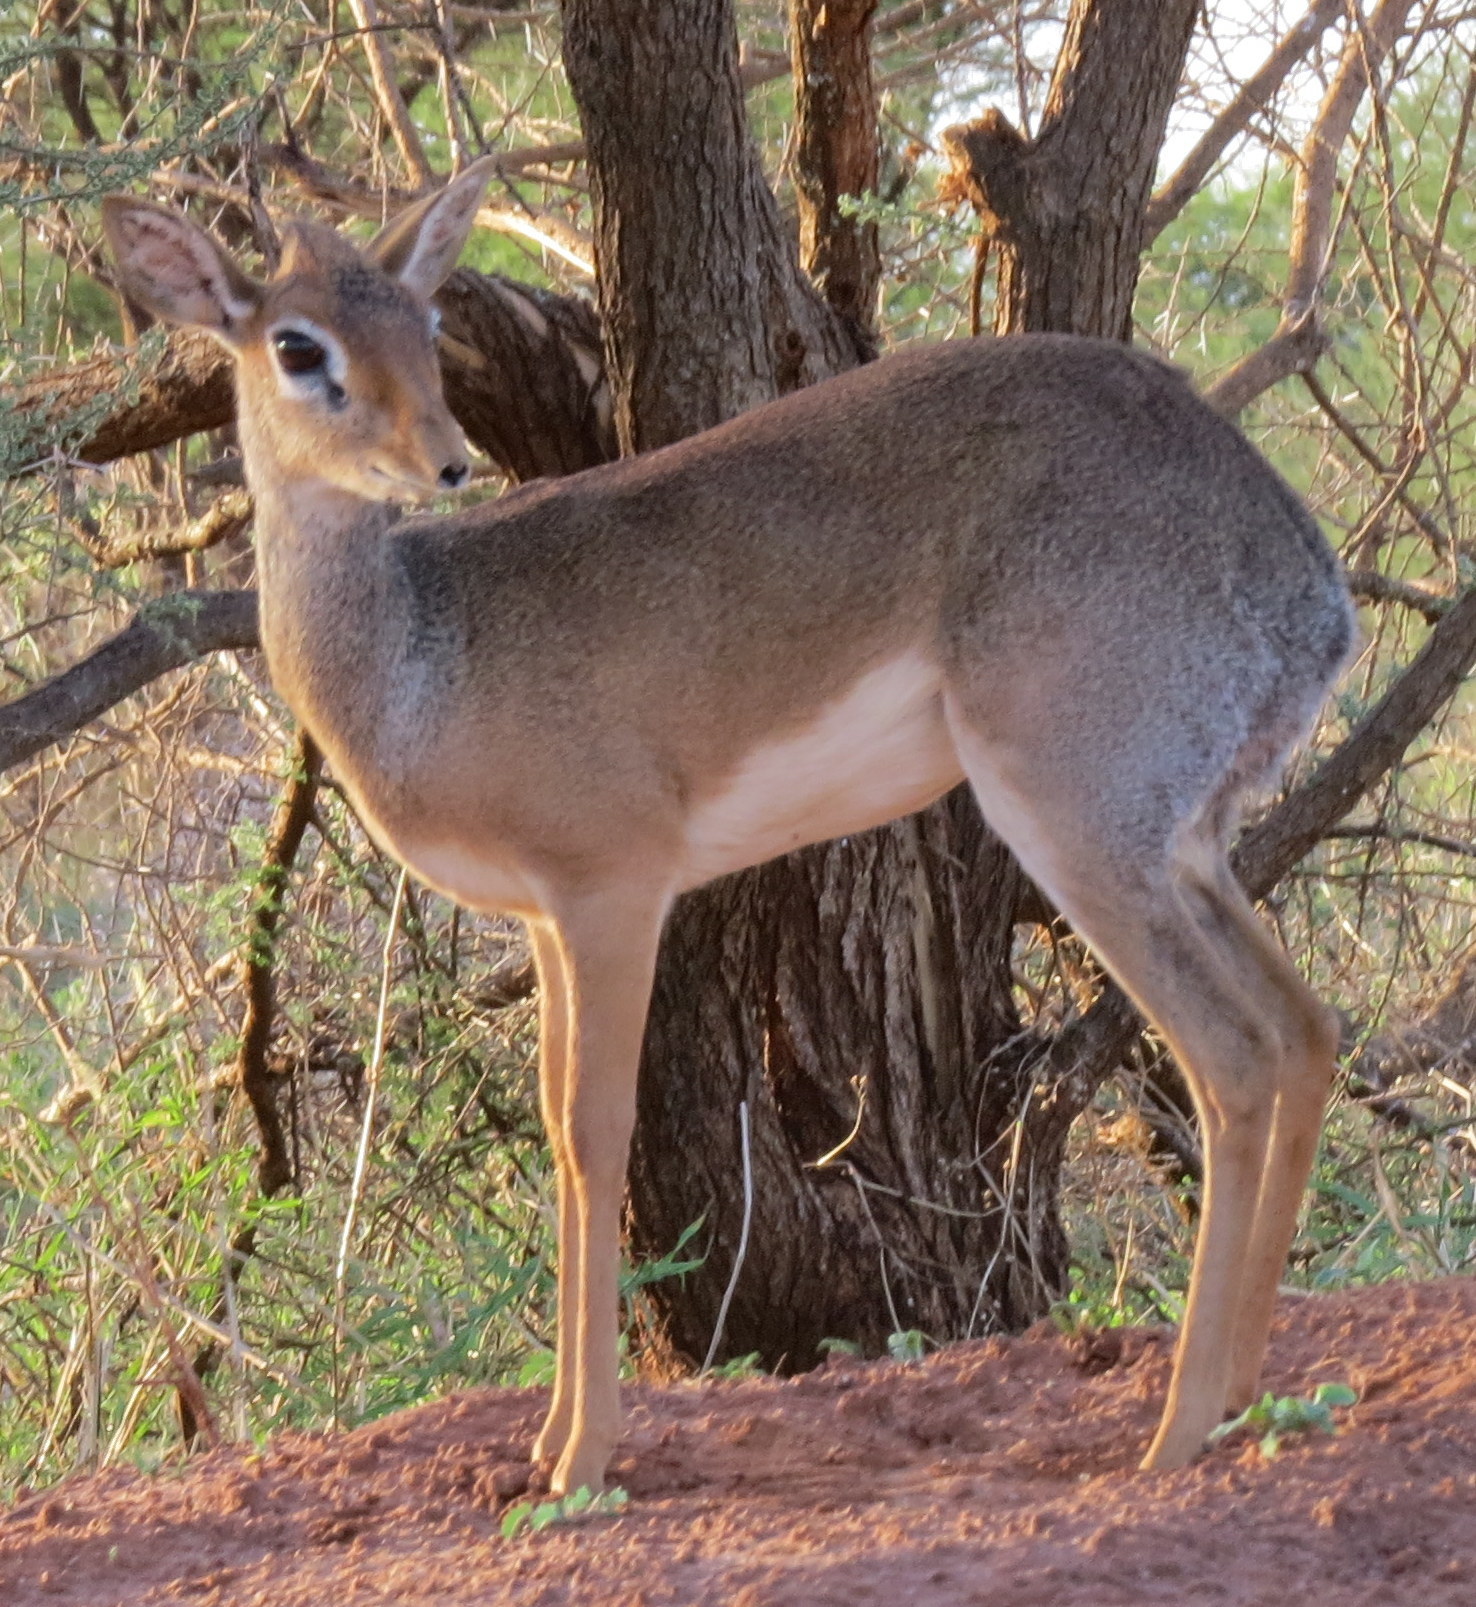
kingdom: Animalia
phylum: Chordata
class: Mammalia
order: Artiodactyla
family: Bovidae
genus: Madoqua
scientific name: Madoqua
